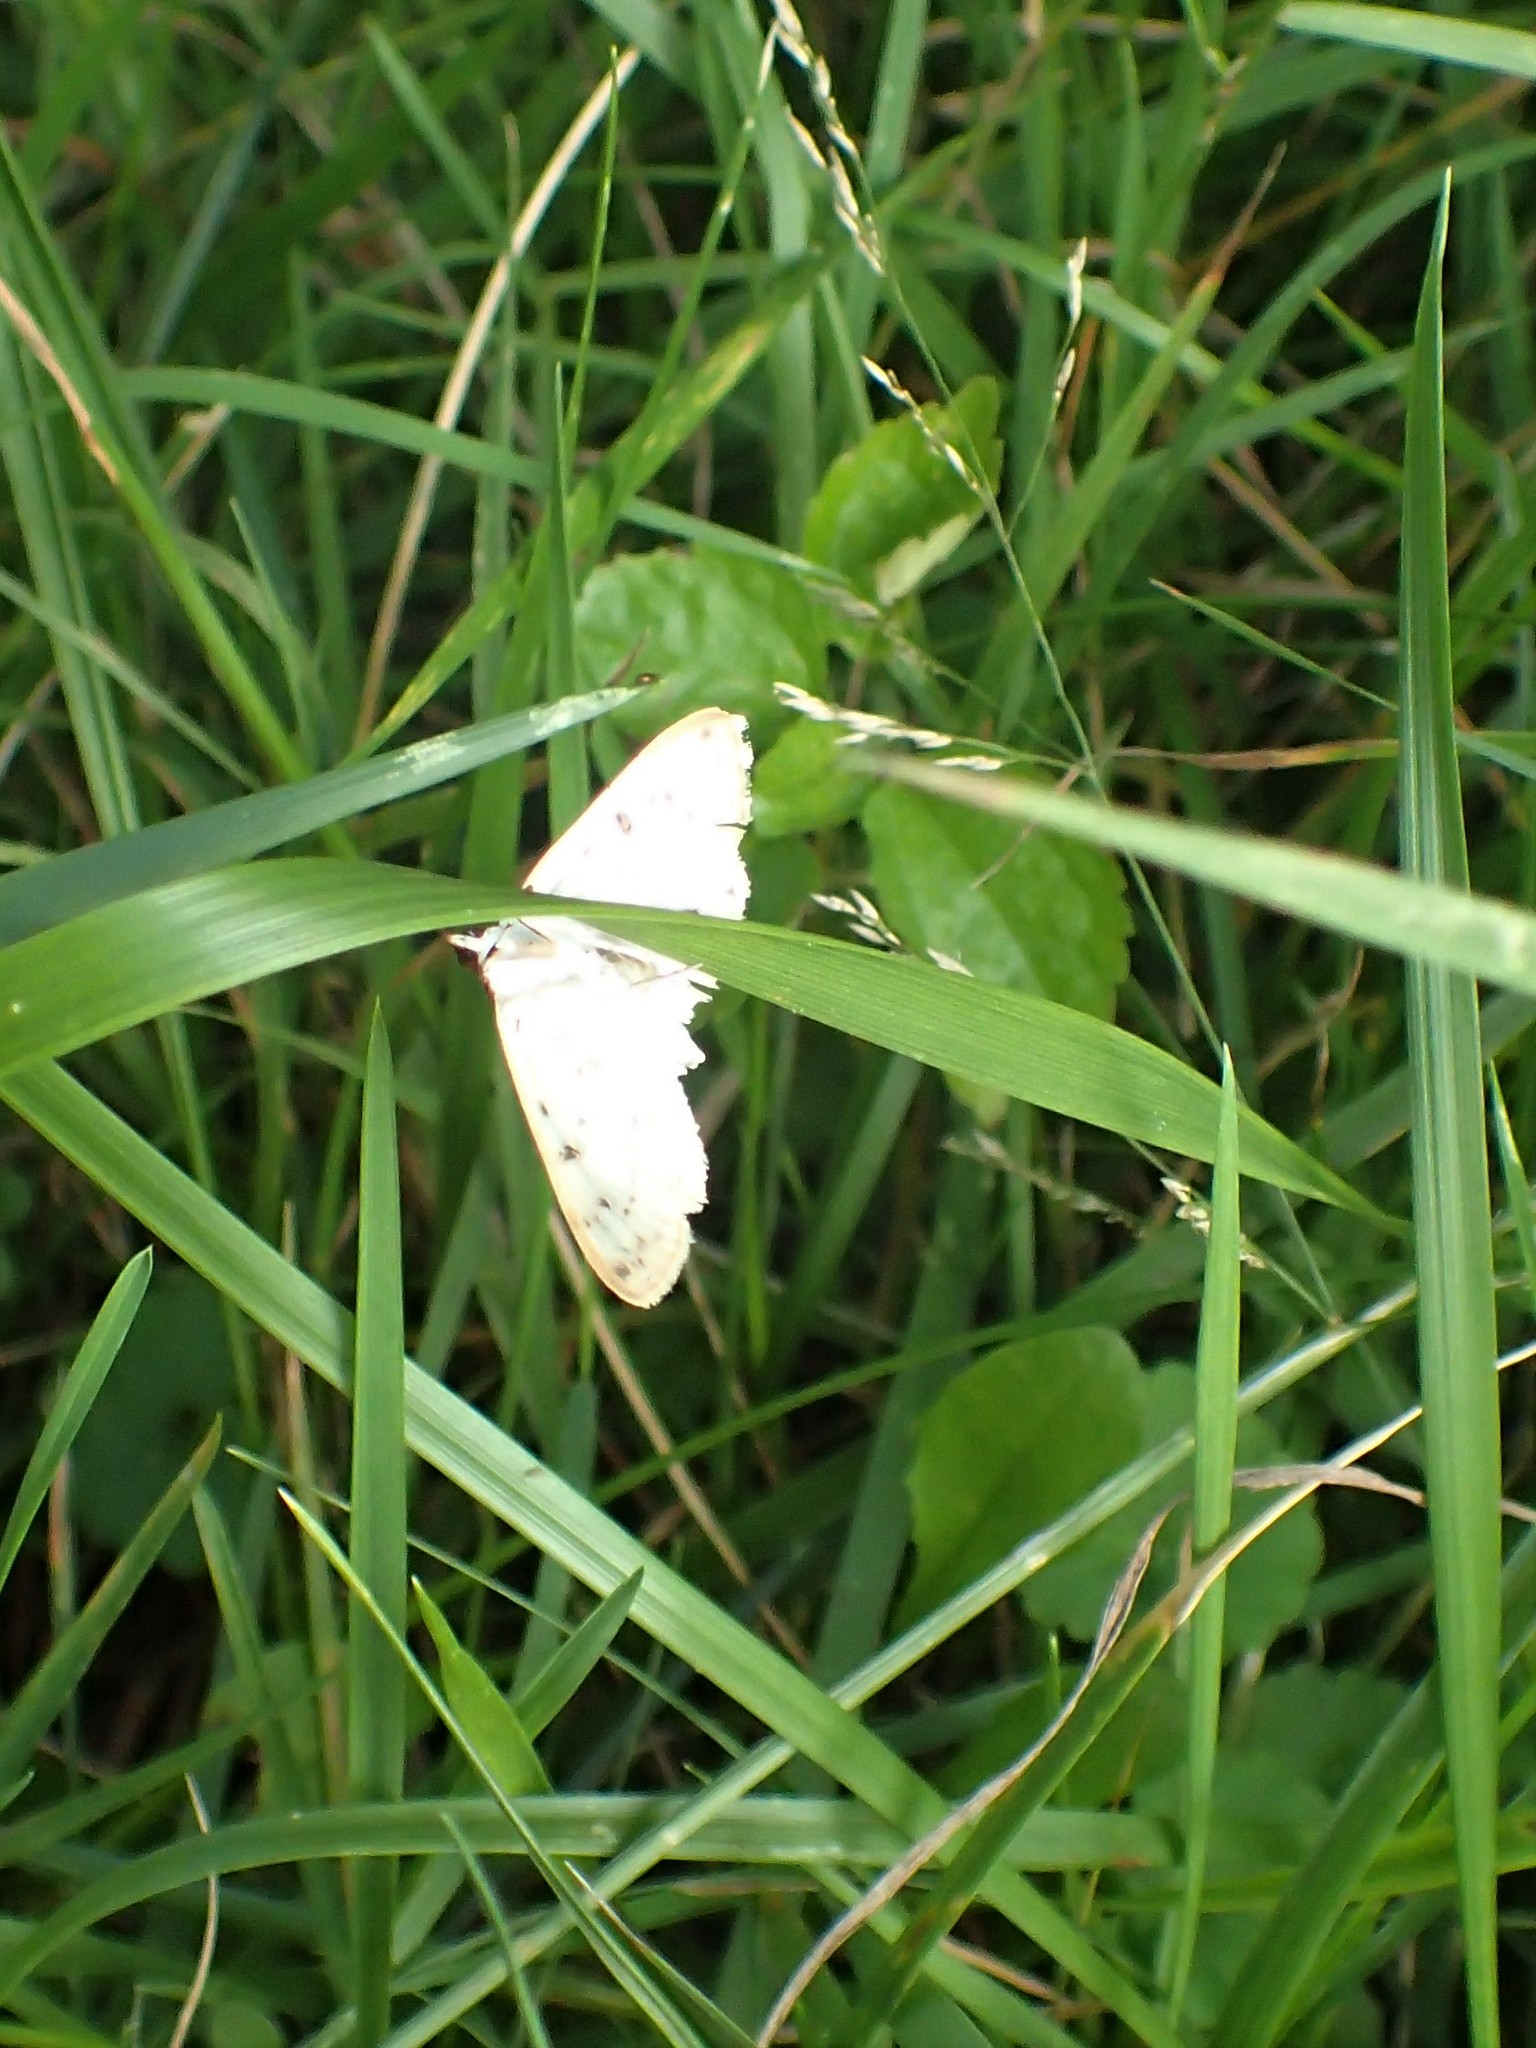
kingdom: Animalia
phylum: Arthropoda
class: Insecta
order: Lepidoptera
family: Crambidae
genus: Polygrammodes
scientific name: Polygrammodes flavidalis
